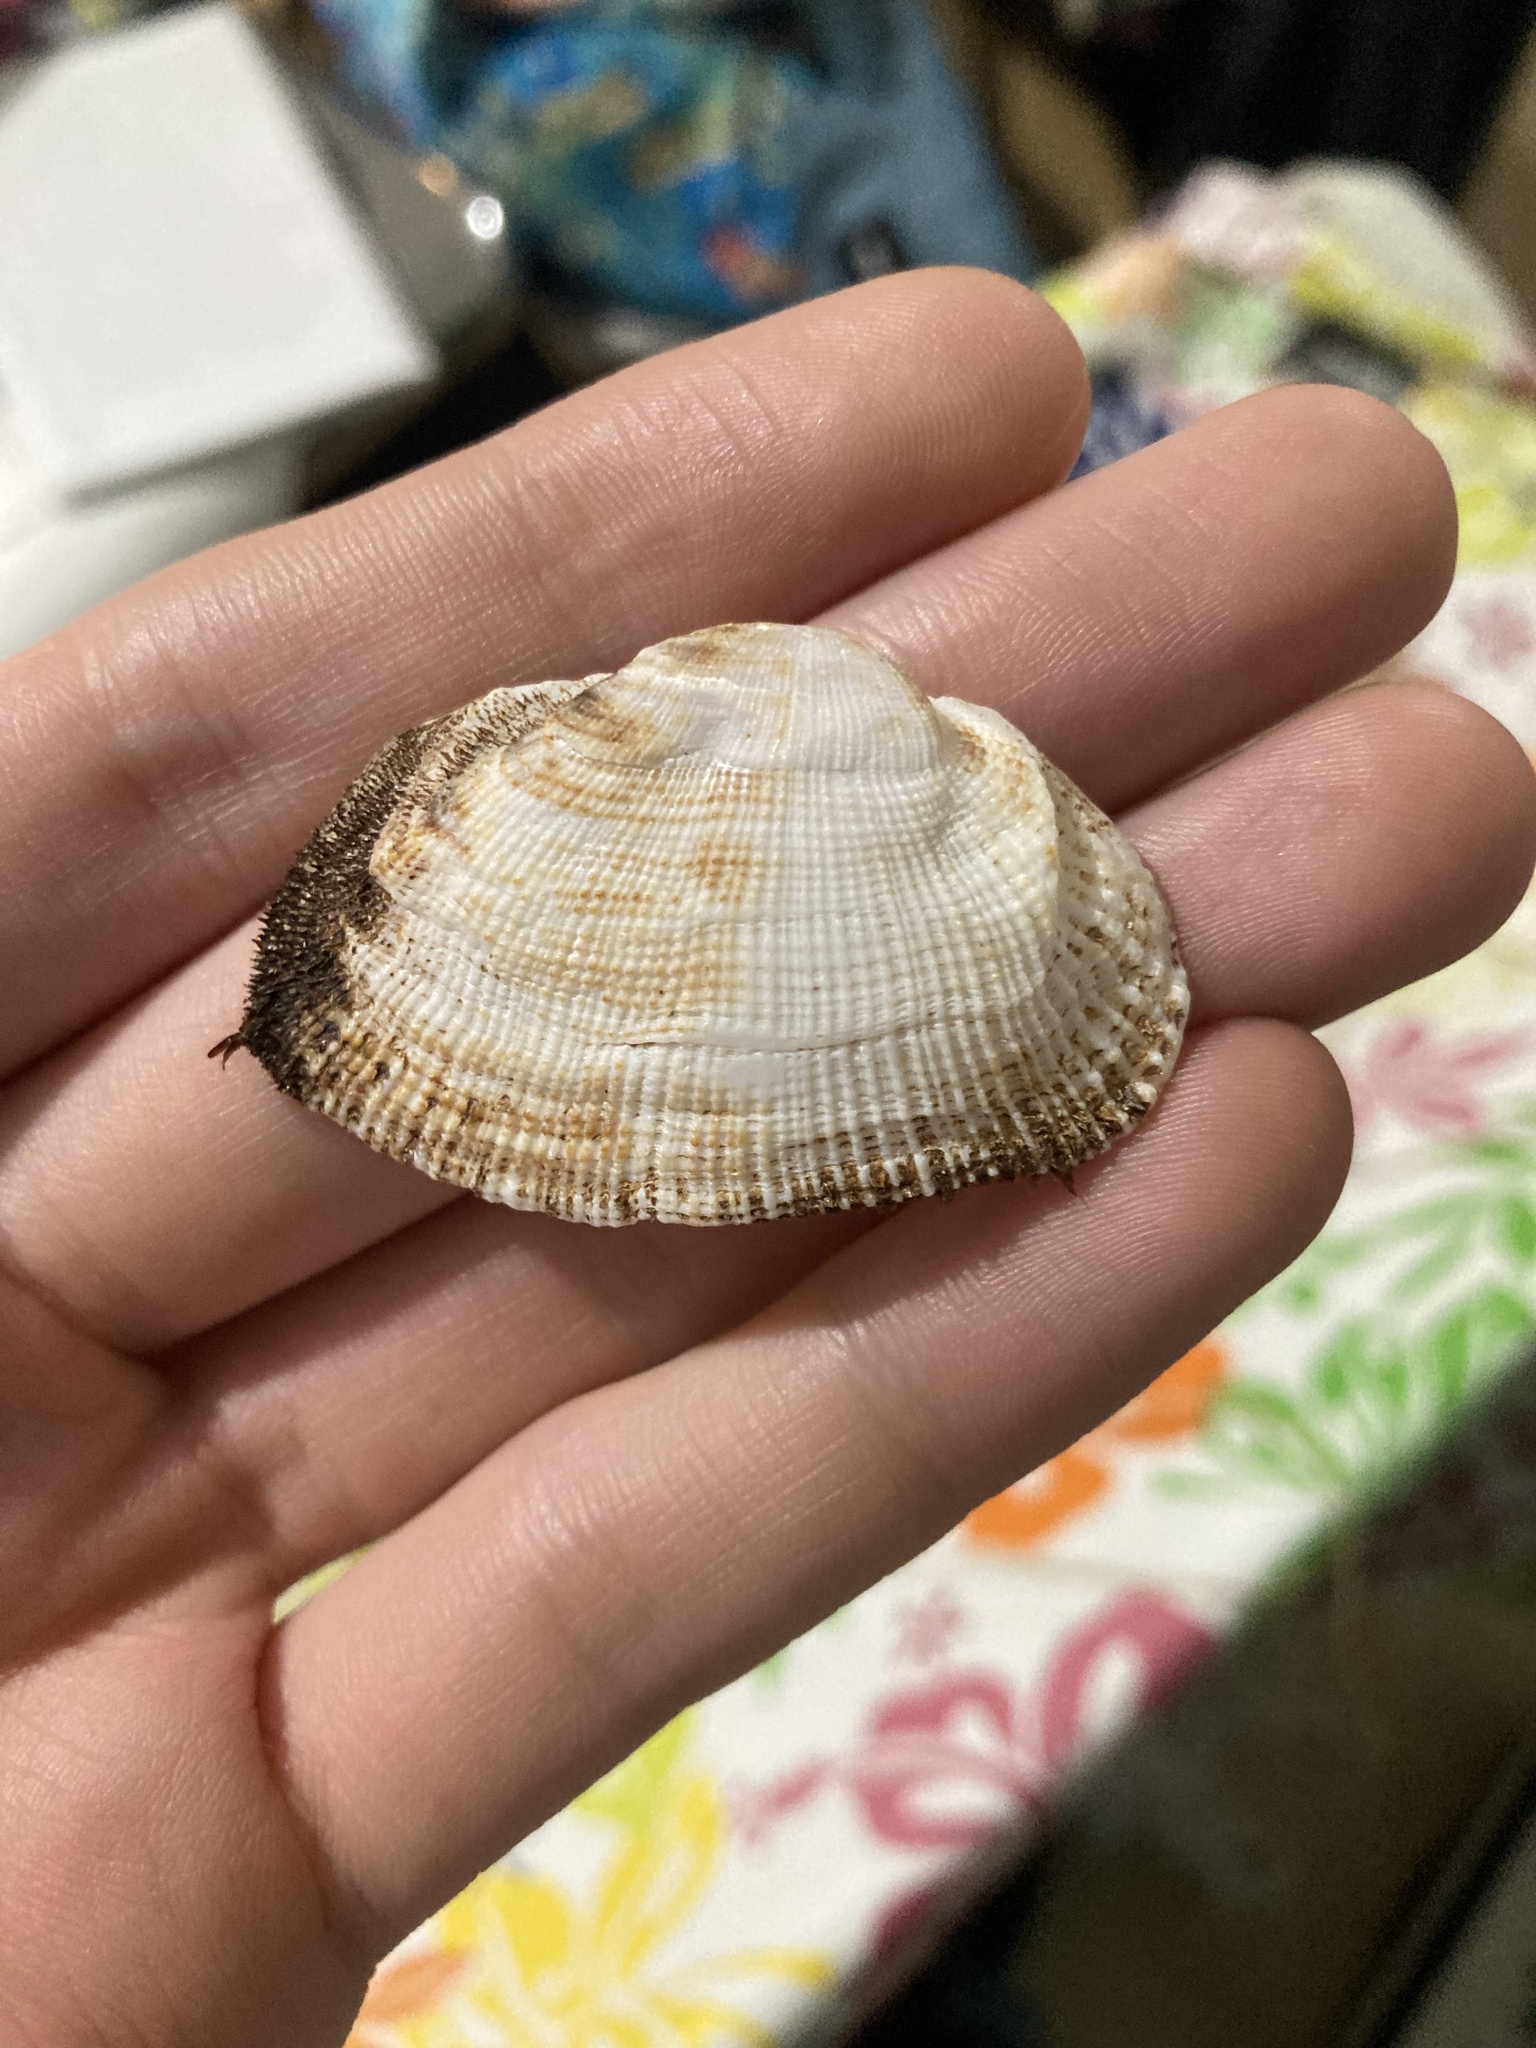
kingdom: Animalia
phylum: Mollusca
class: Bivalvia
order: Arcida
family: Arcidae
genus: Barbatia
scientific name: Barbatia pistachia
